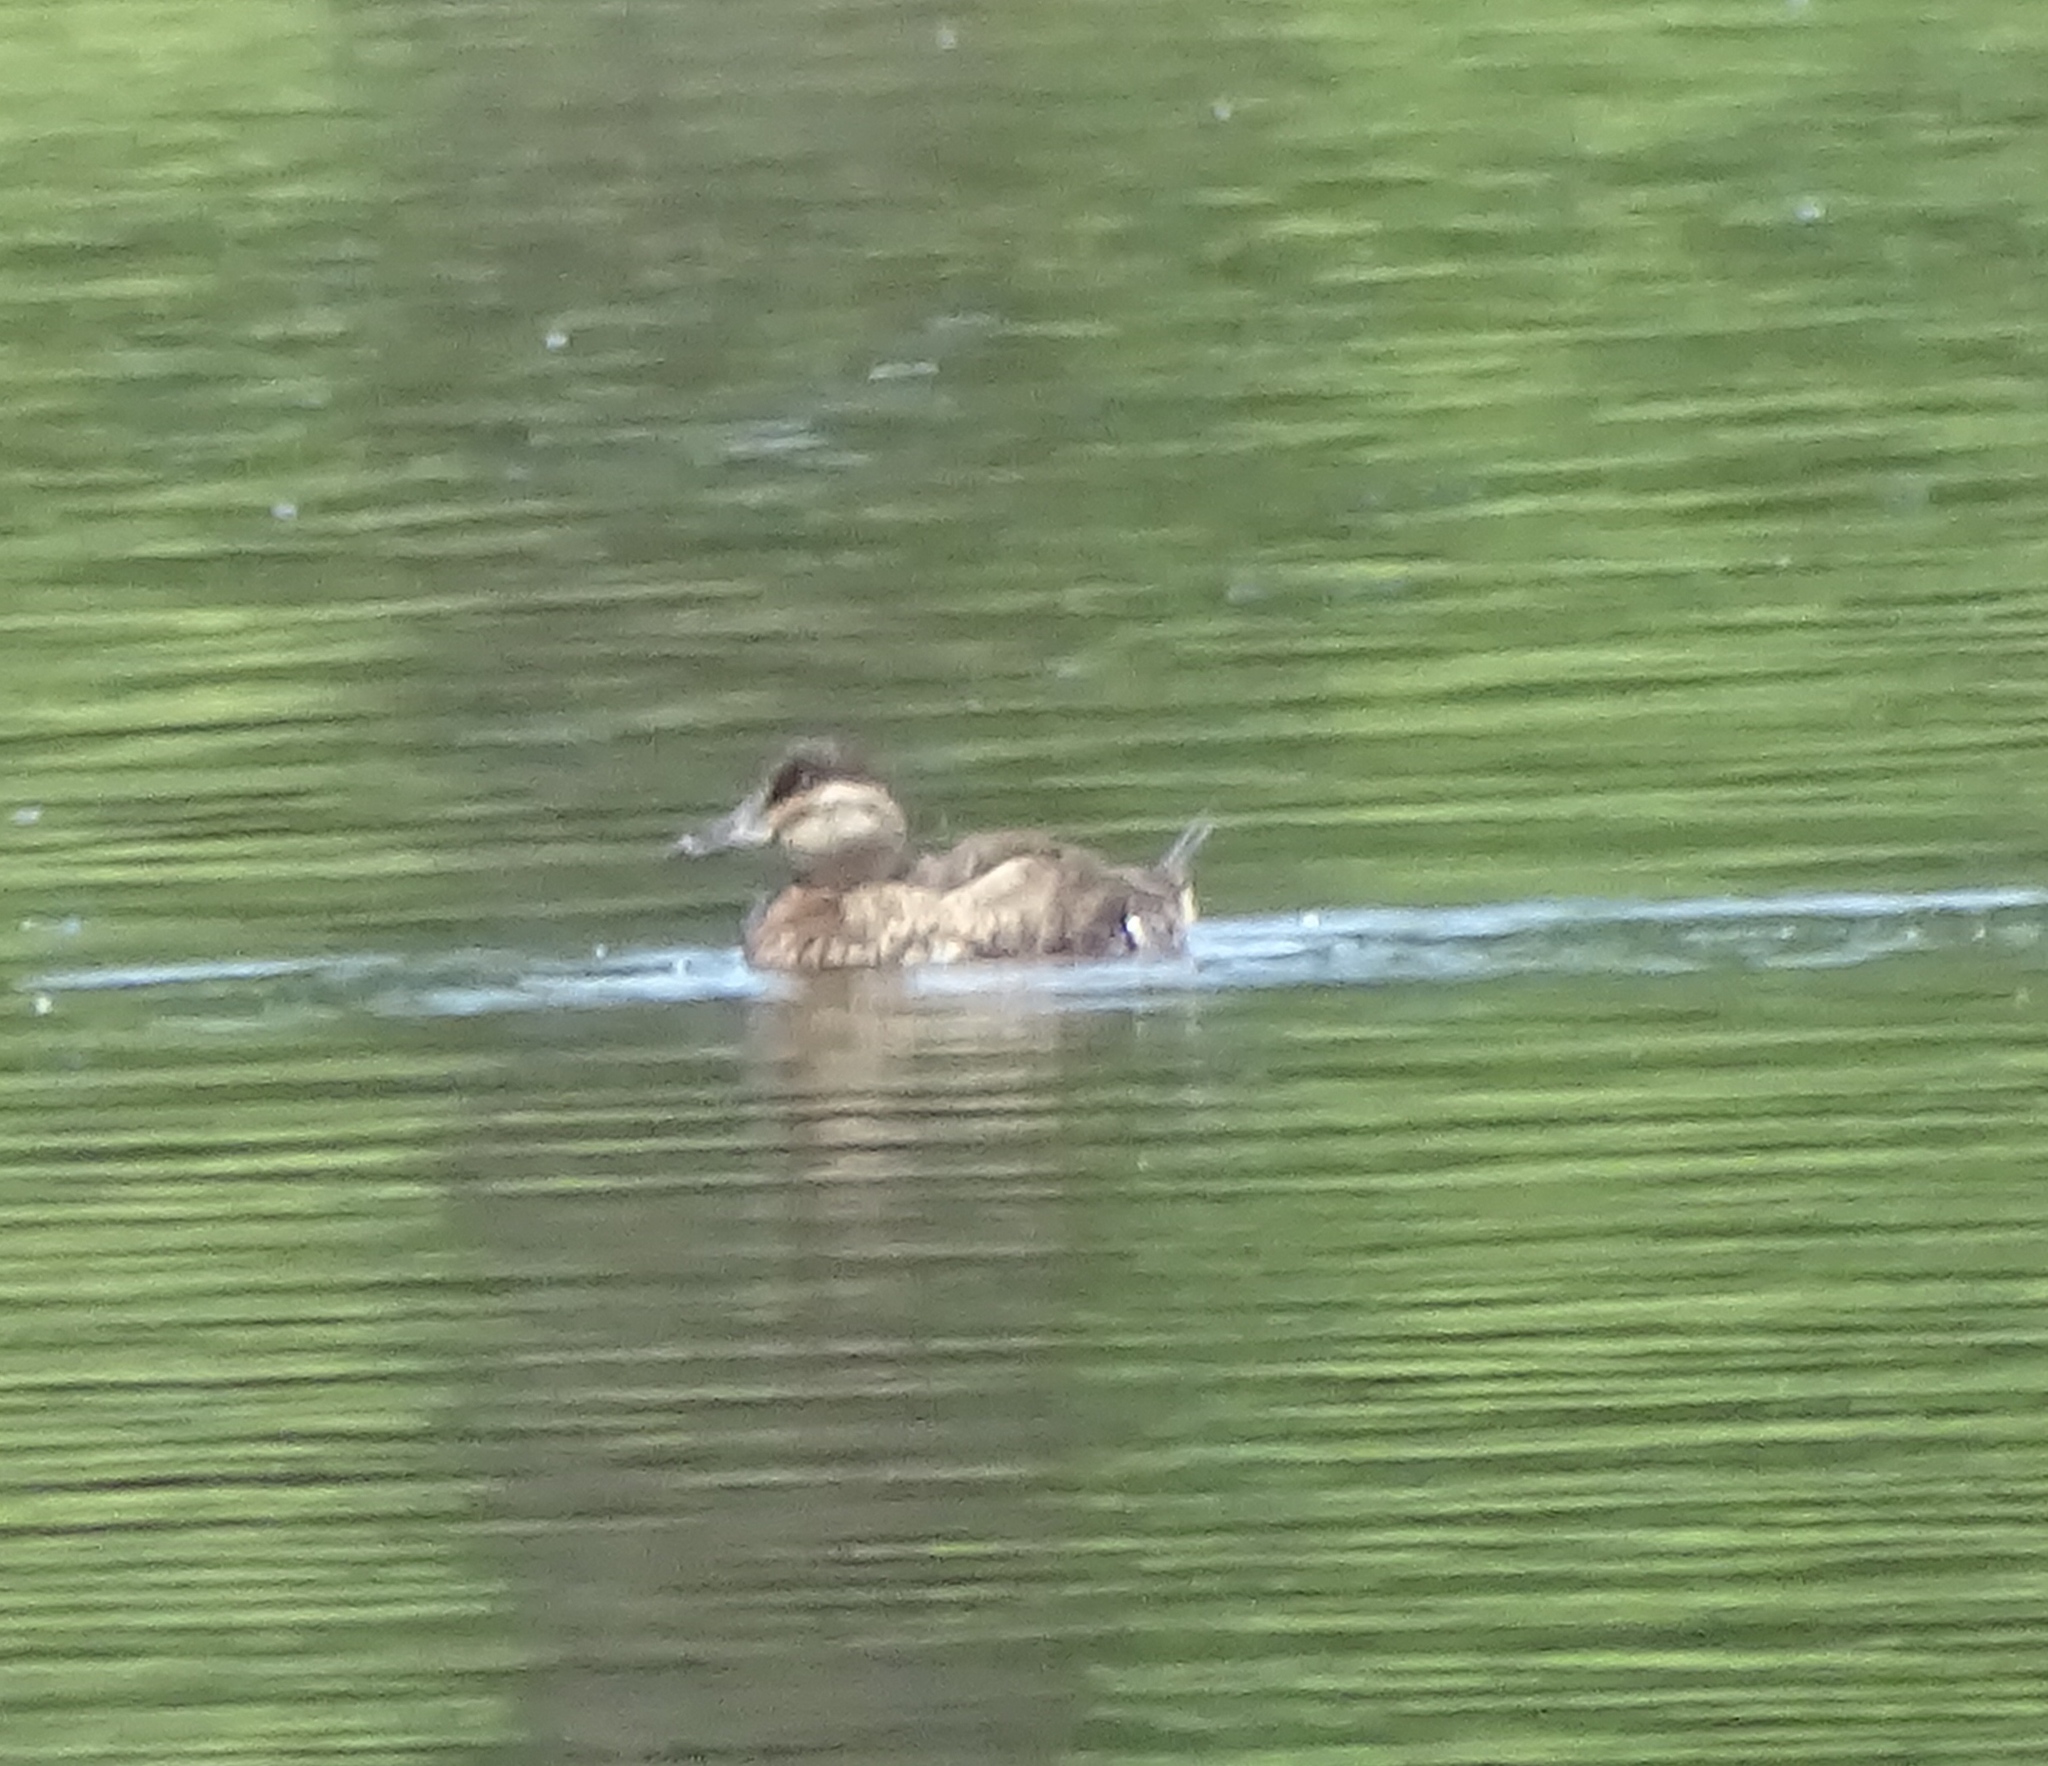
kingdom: Animalia
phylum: Chordata
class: Aves
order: Anseriformes
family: Anatidae
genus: Oxyura
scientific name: Oxyura jamaicensis
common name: Ruddy duck
